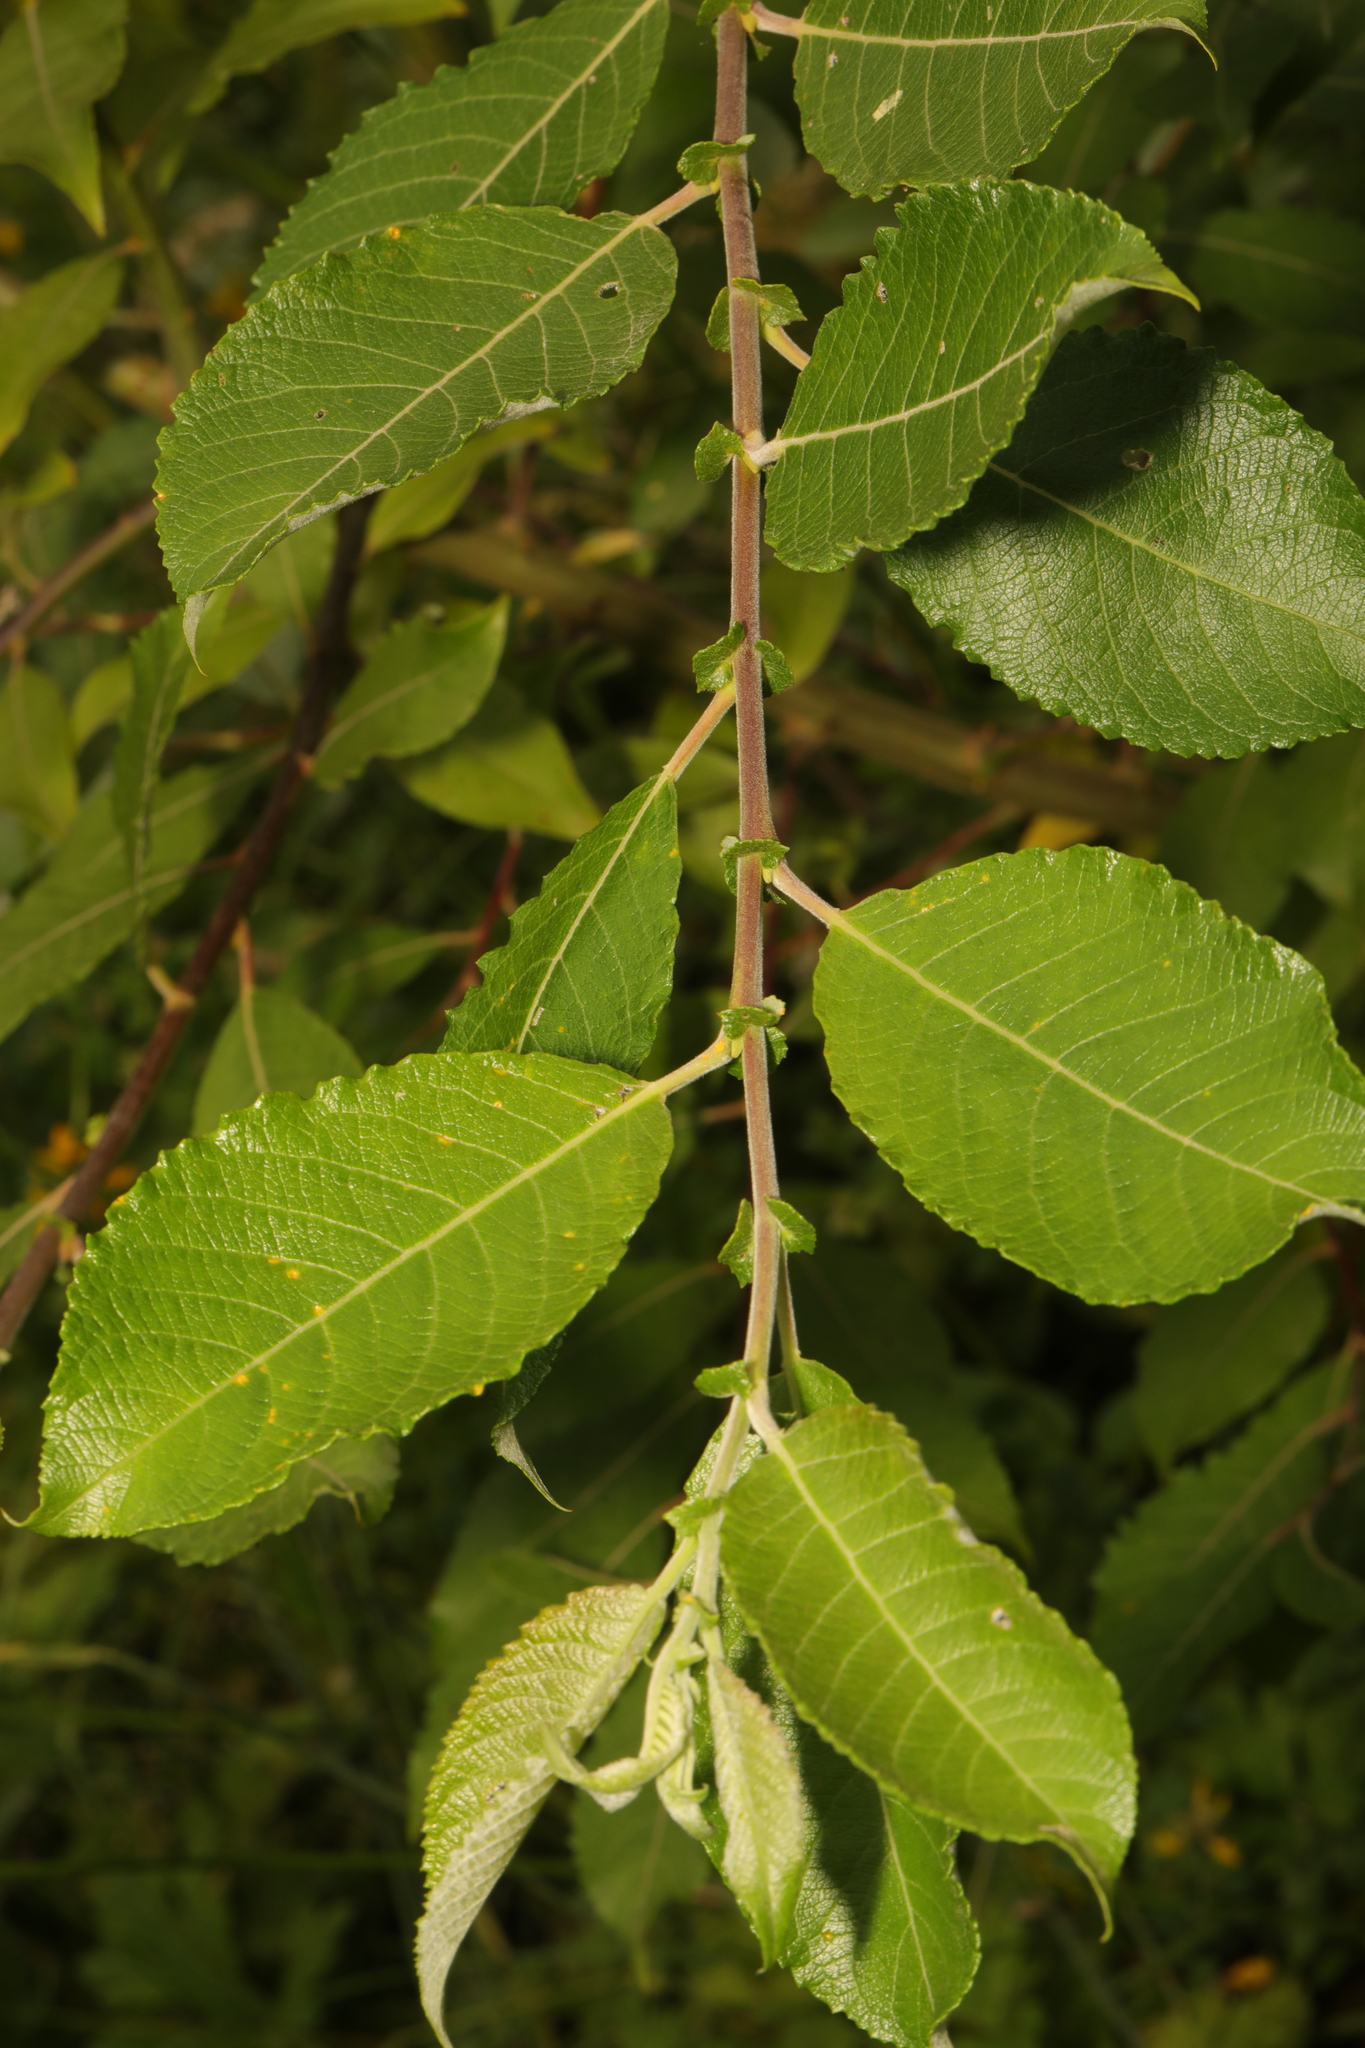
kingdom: Plantae
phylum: Tracheophyta
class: Magnoliopsida
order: Malpighiales
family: Salicaceae
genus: Salix
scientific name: Salix caprea
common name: Goat willow
